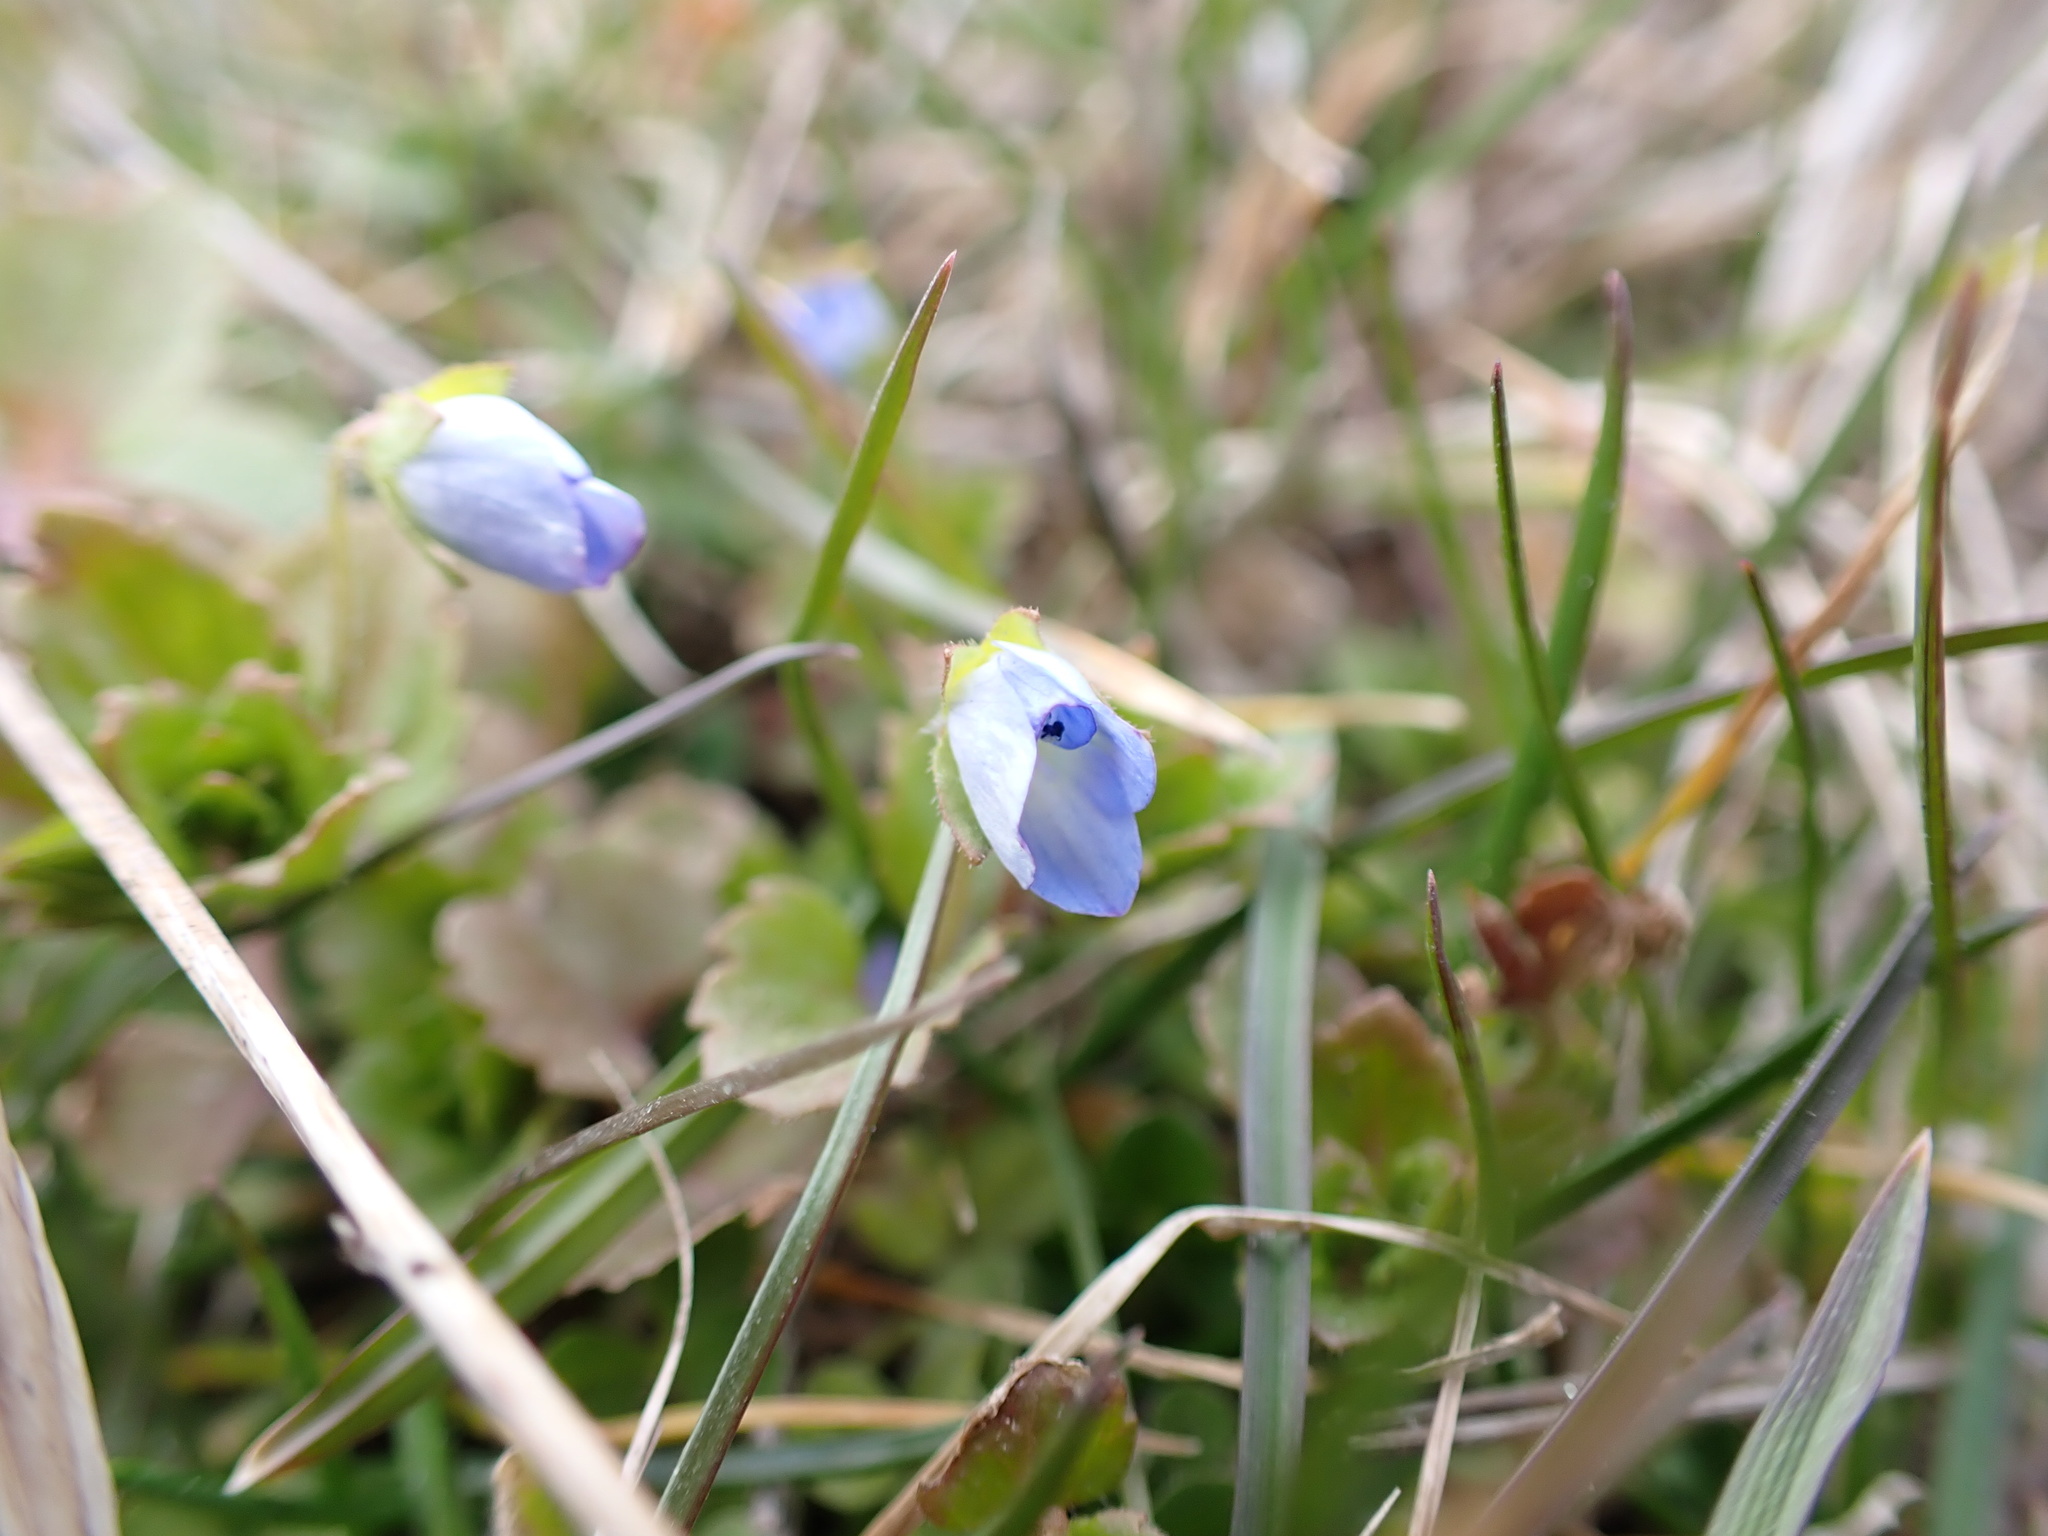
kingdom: Plantae
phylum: Tracheophyta
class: Magnoliopsida
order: Lamiales
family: Plantaginaceae
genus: Veronica
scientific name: Veronica persica
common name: Common field-speedwell
